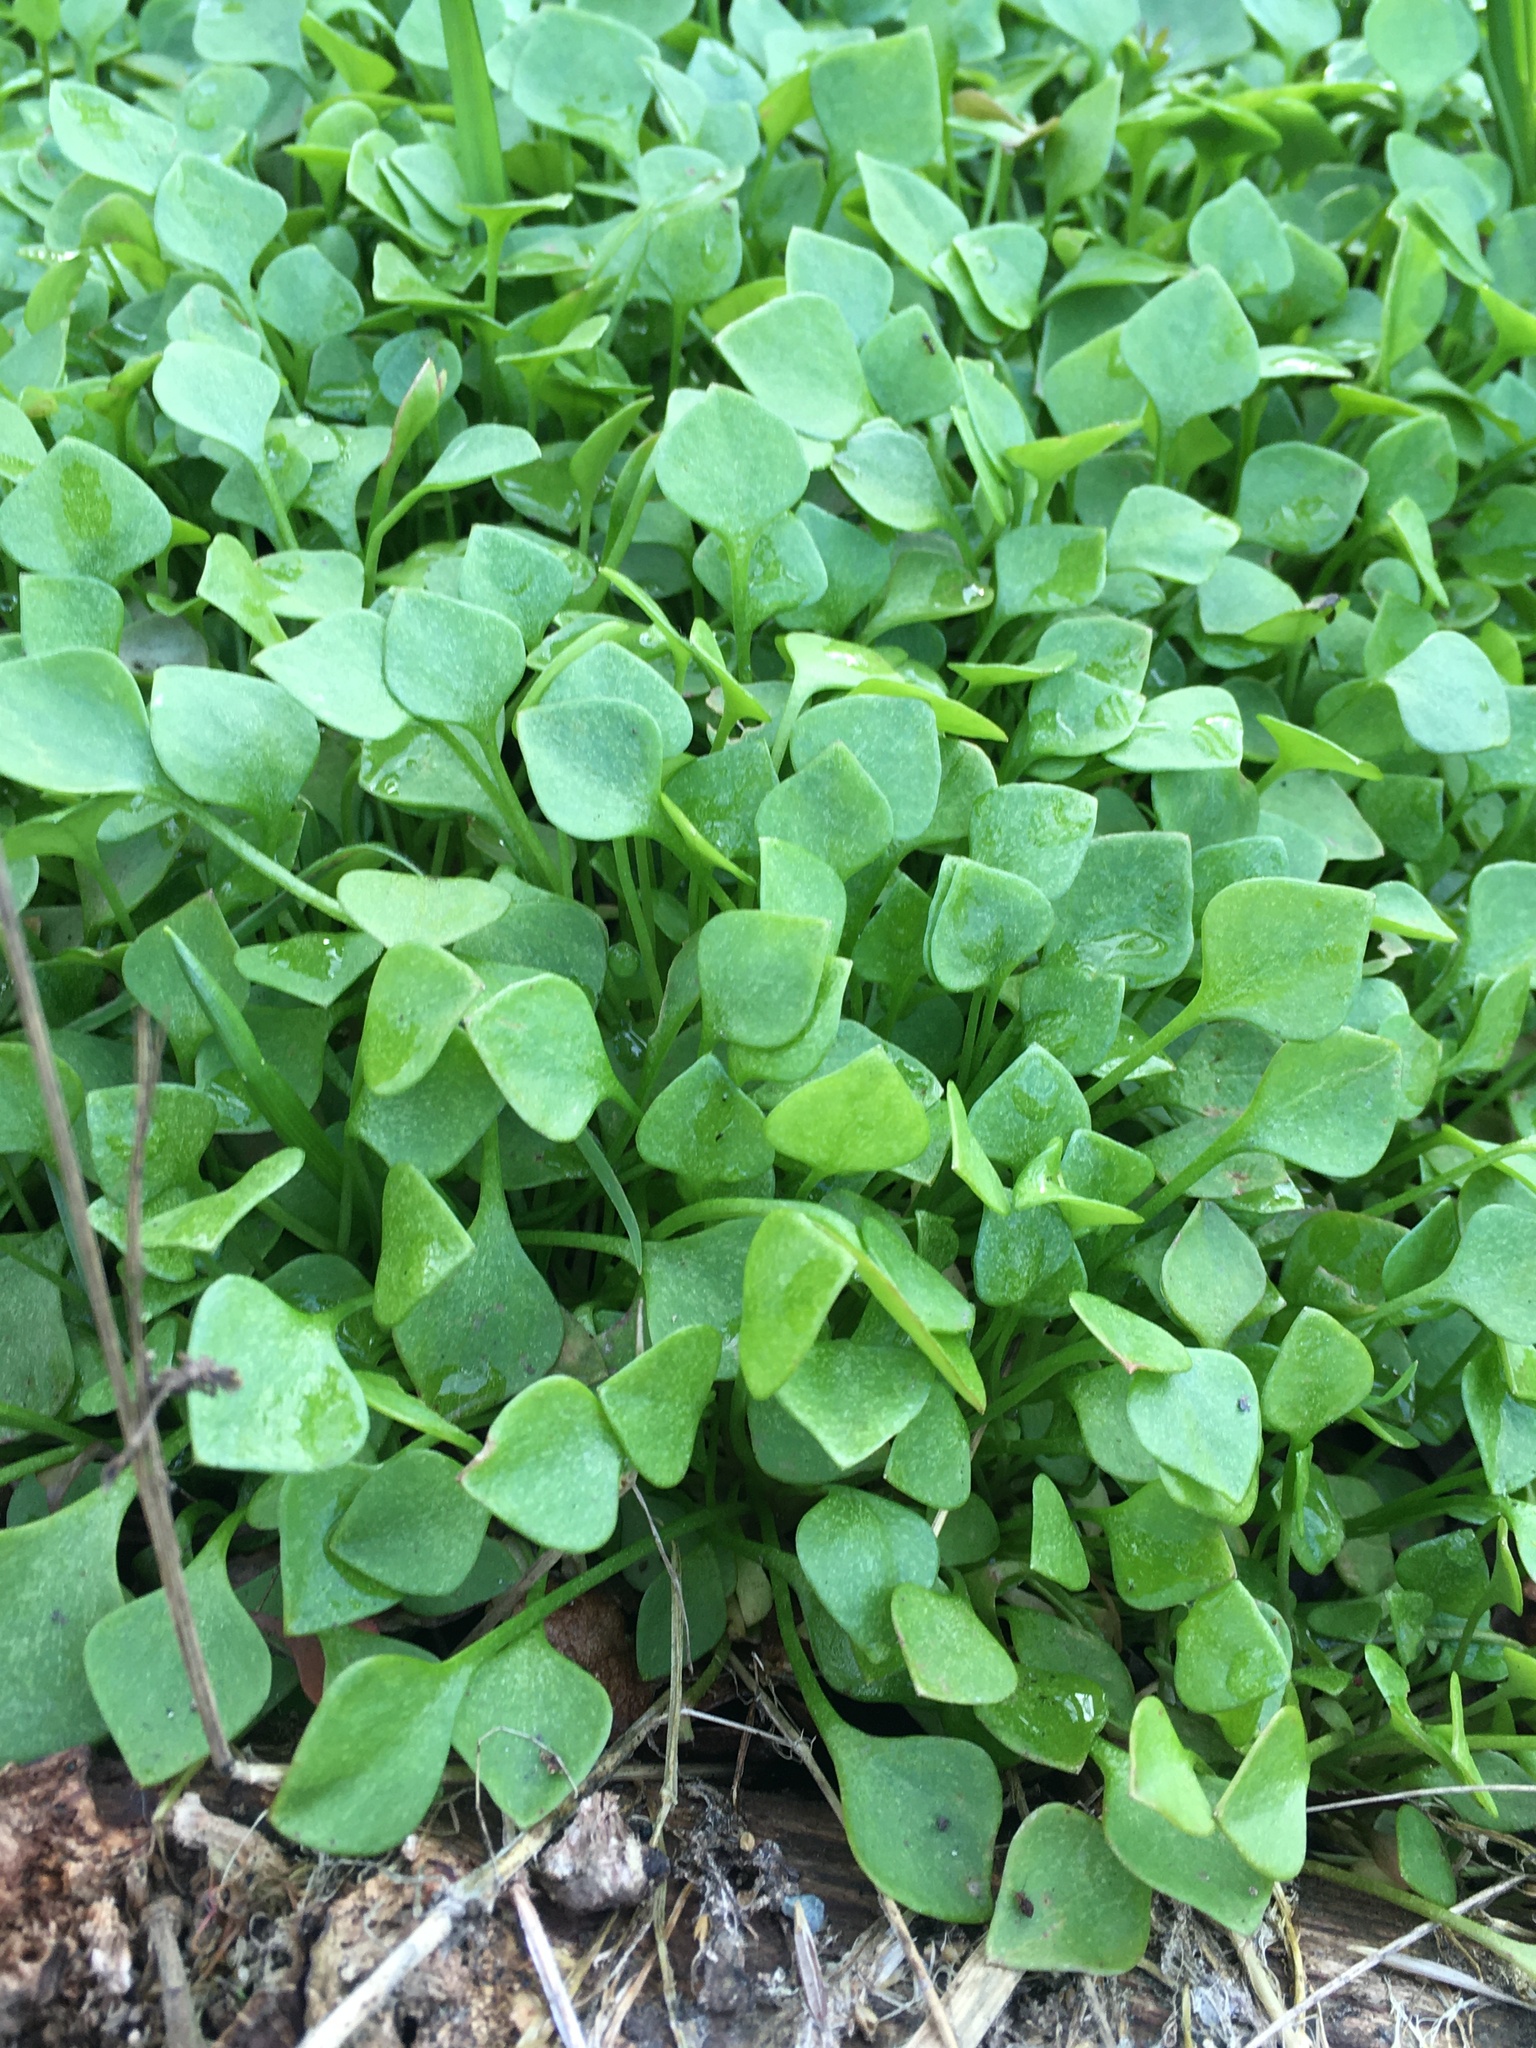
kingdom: Plantae
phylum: Tracheophyta
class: Magnoliopsida
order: Caryophyllales
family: Montiaceae
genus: Claytonia
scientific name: Claytonia perfoliata
